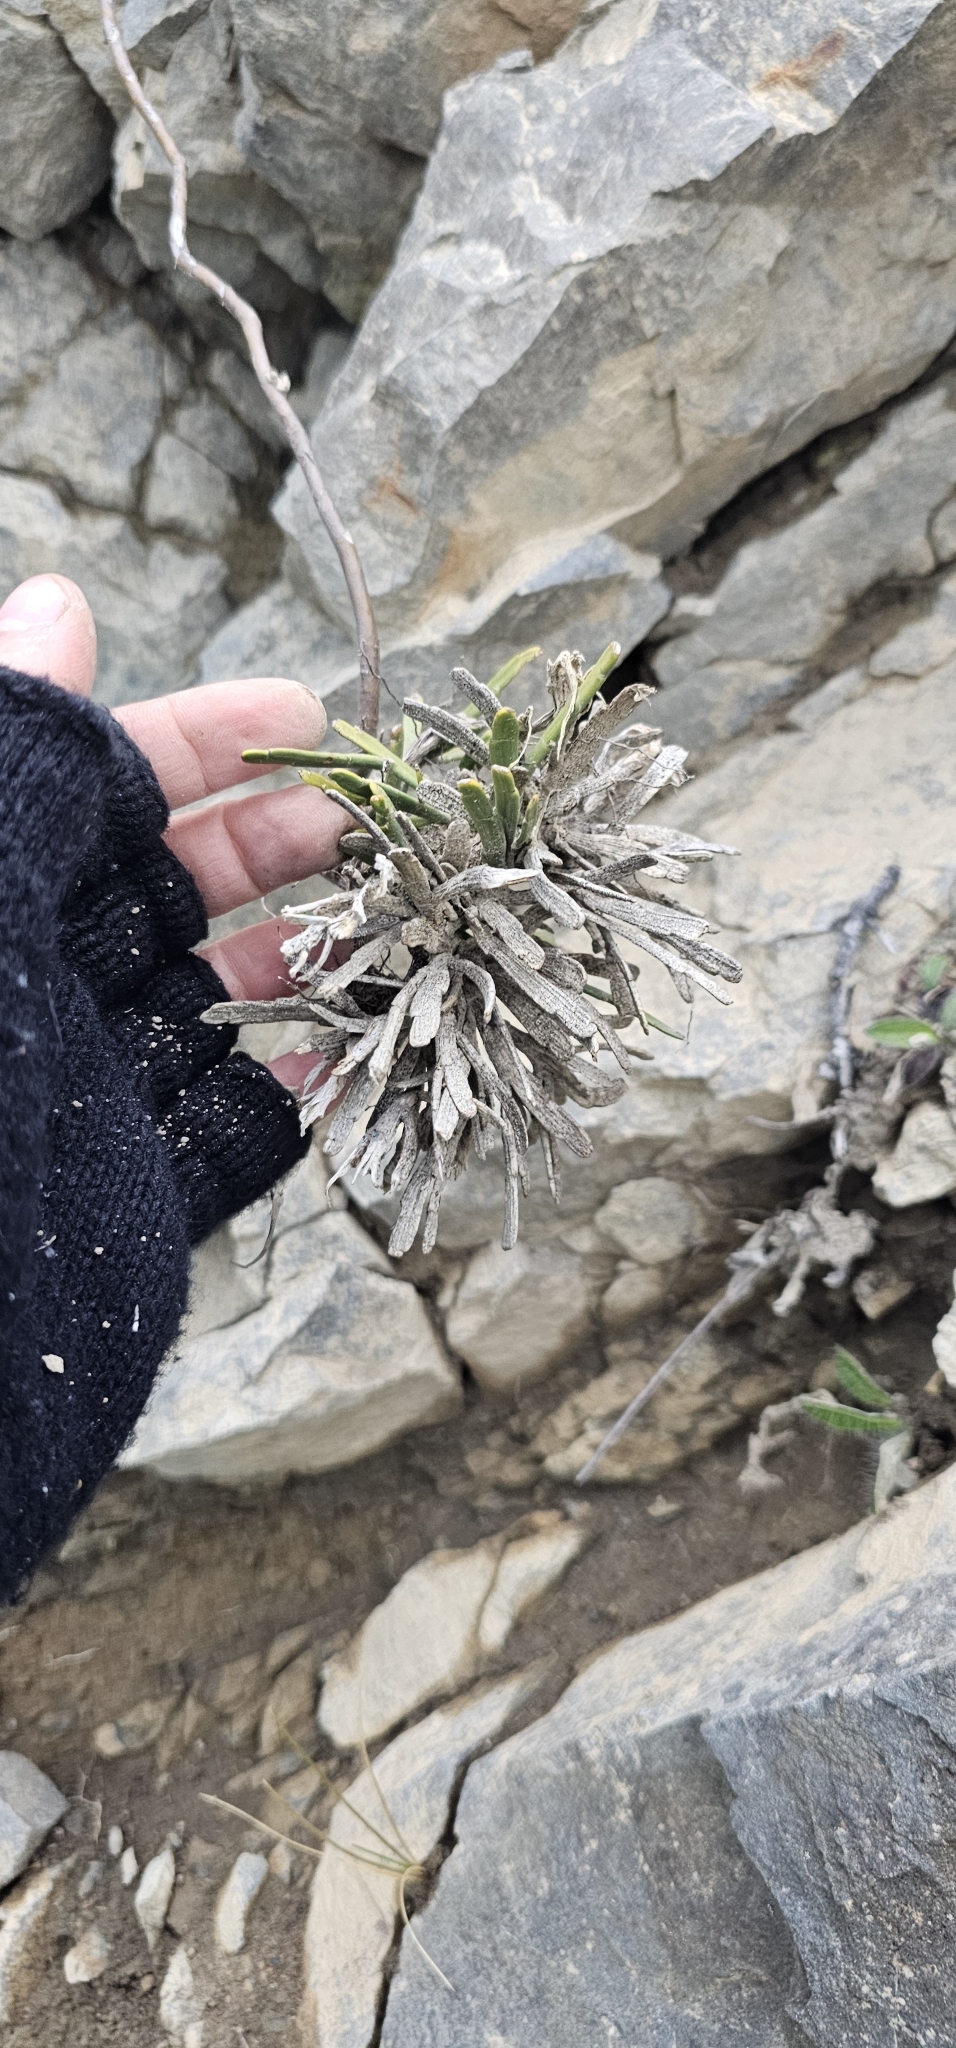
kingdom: Plantae
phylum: Tracheophyta
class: Magnoliopsida
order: Fabales
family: Fabaceae
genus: Carmichaelia
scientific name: Carmichaelia monroi
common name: Stout dwarf broom
